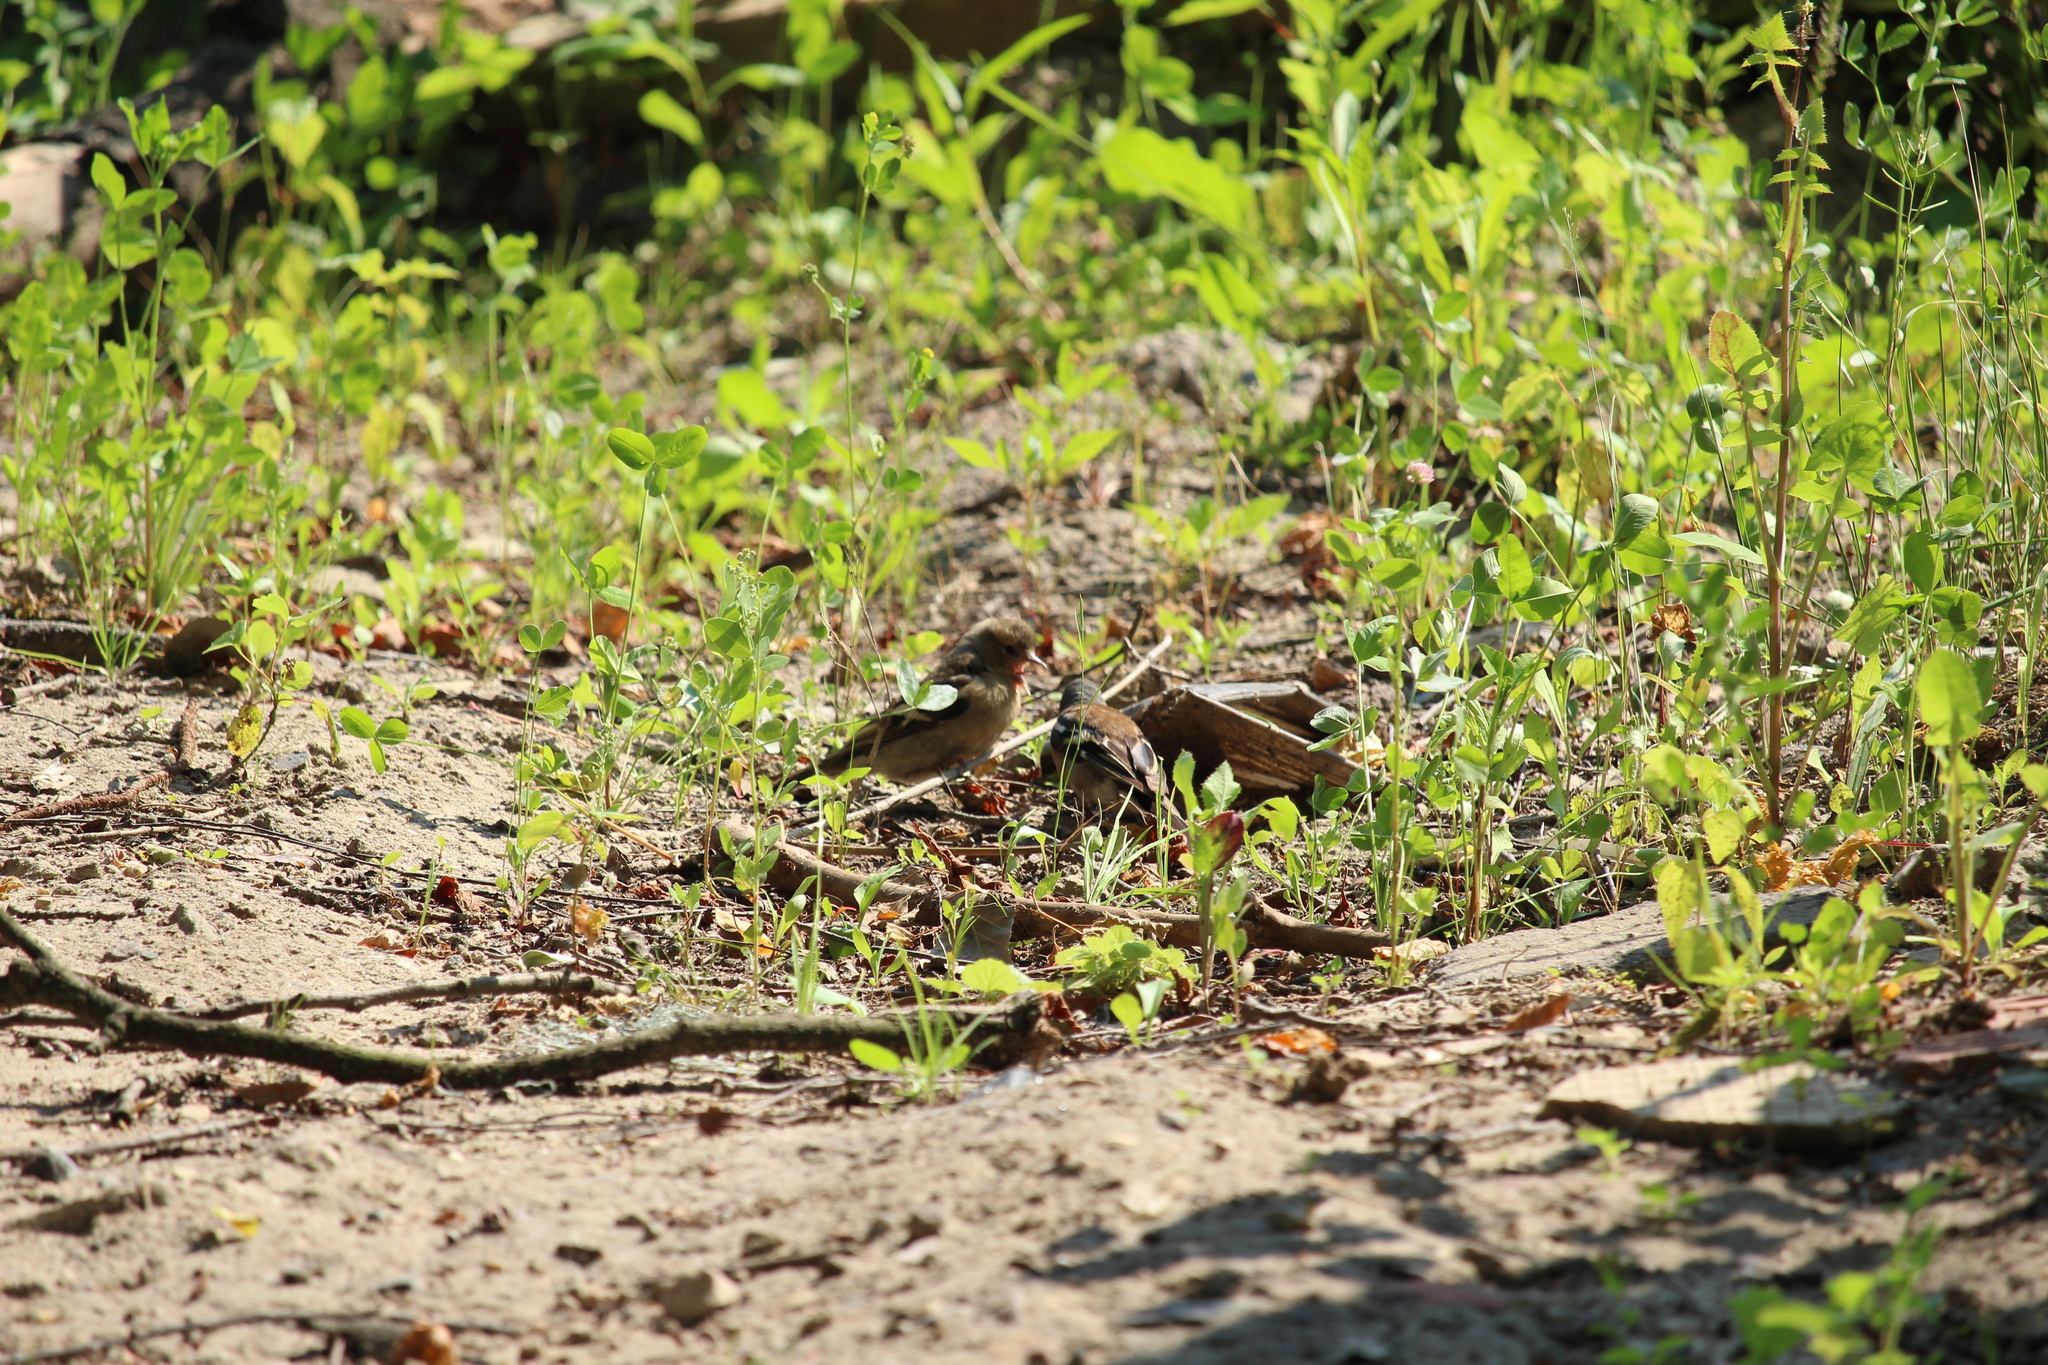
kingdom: Animalia
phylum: Chordata
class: Aves
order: Passeriformes
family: Fringillidae
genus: Fringilla
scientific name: Fringilla coelebs
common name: Common chaffinch
